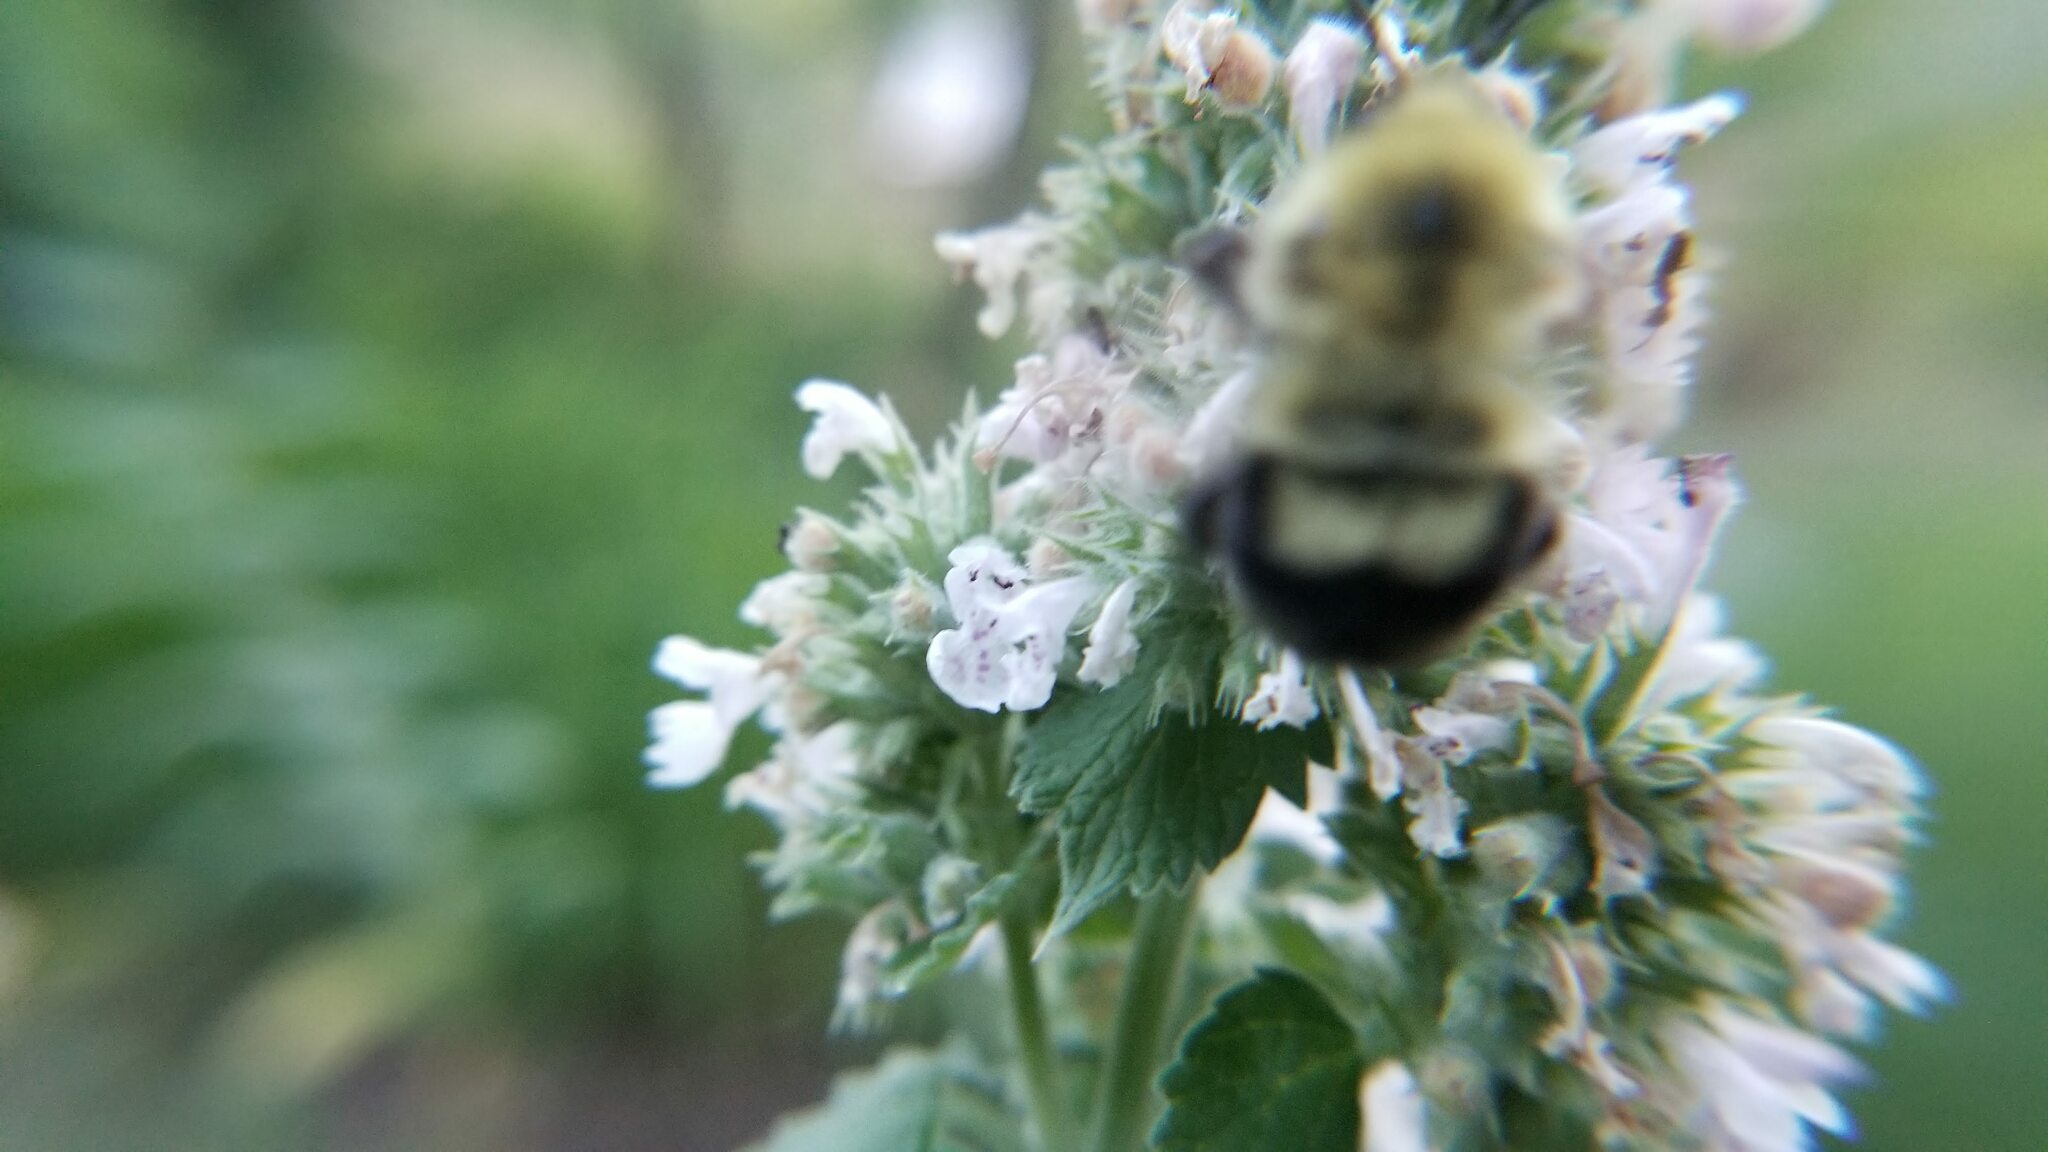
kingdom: Animalia
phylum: Arthropoda
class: Insecta
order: Hymenoptera
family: Apidae
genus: Bombus
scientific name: Bombus bimaculatus
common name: Two-spotted bumble bee
